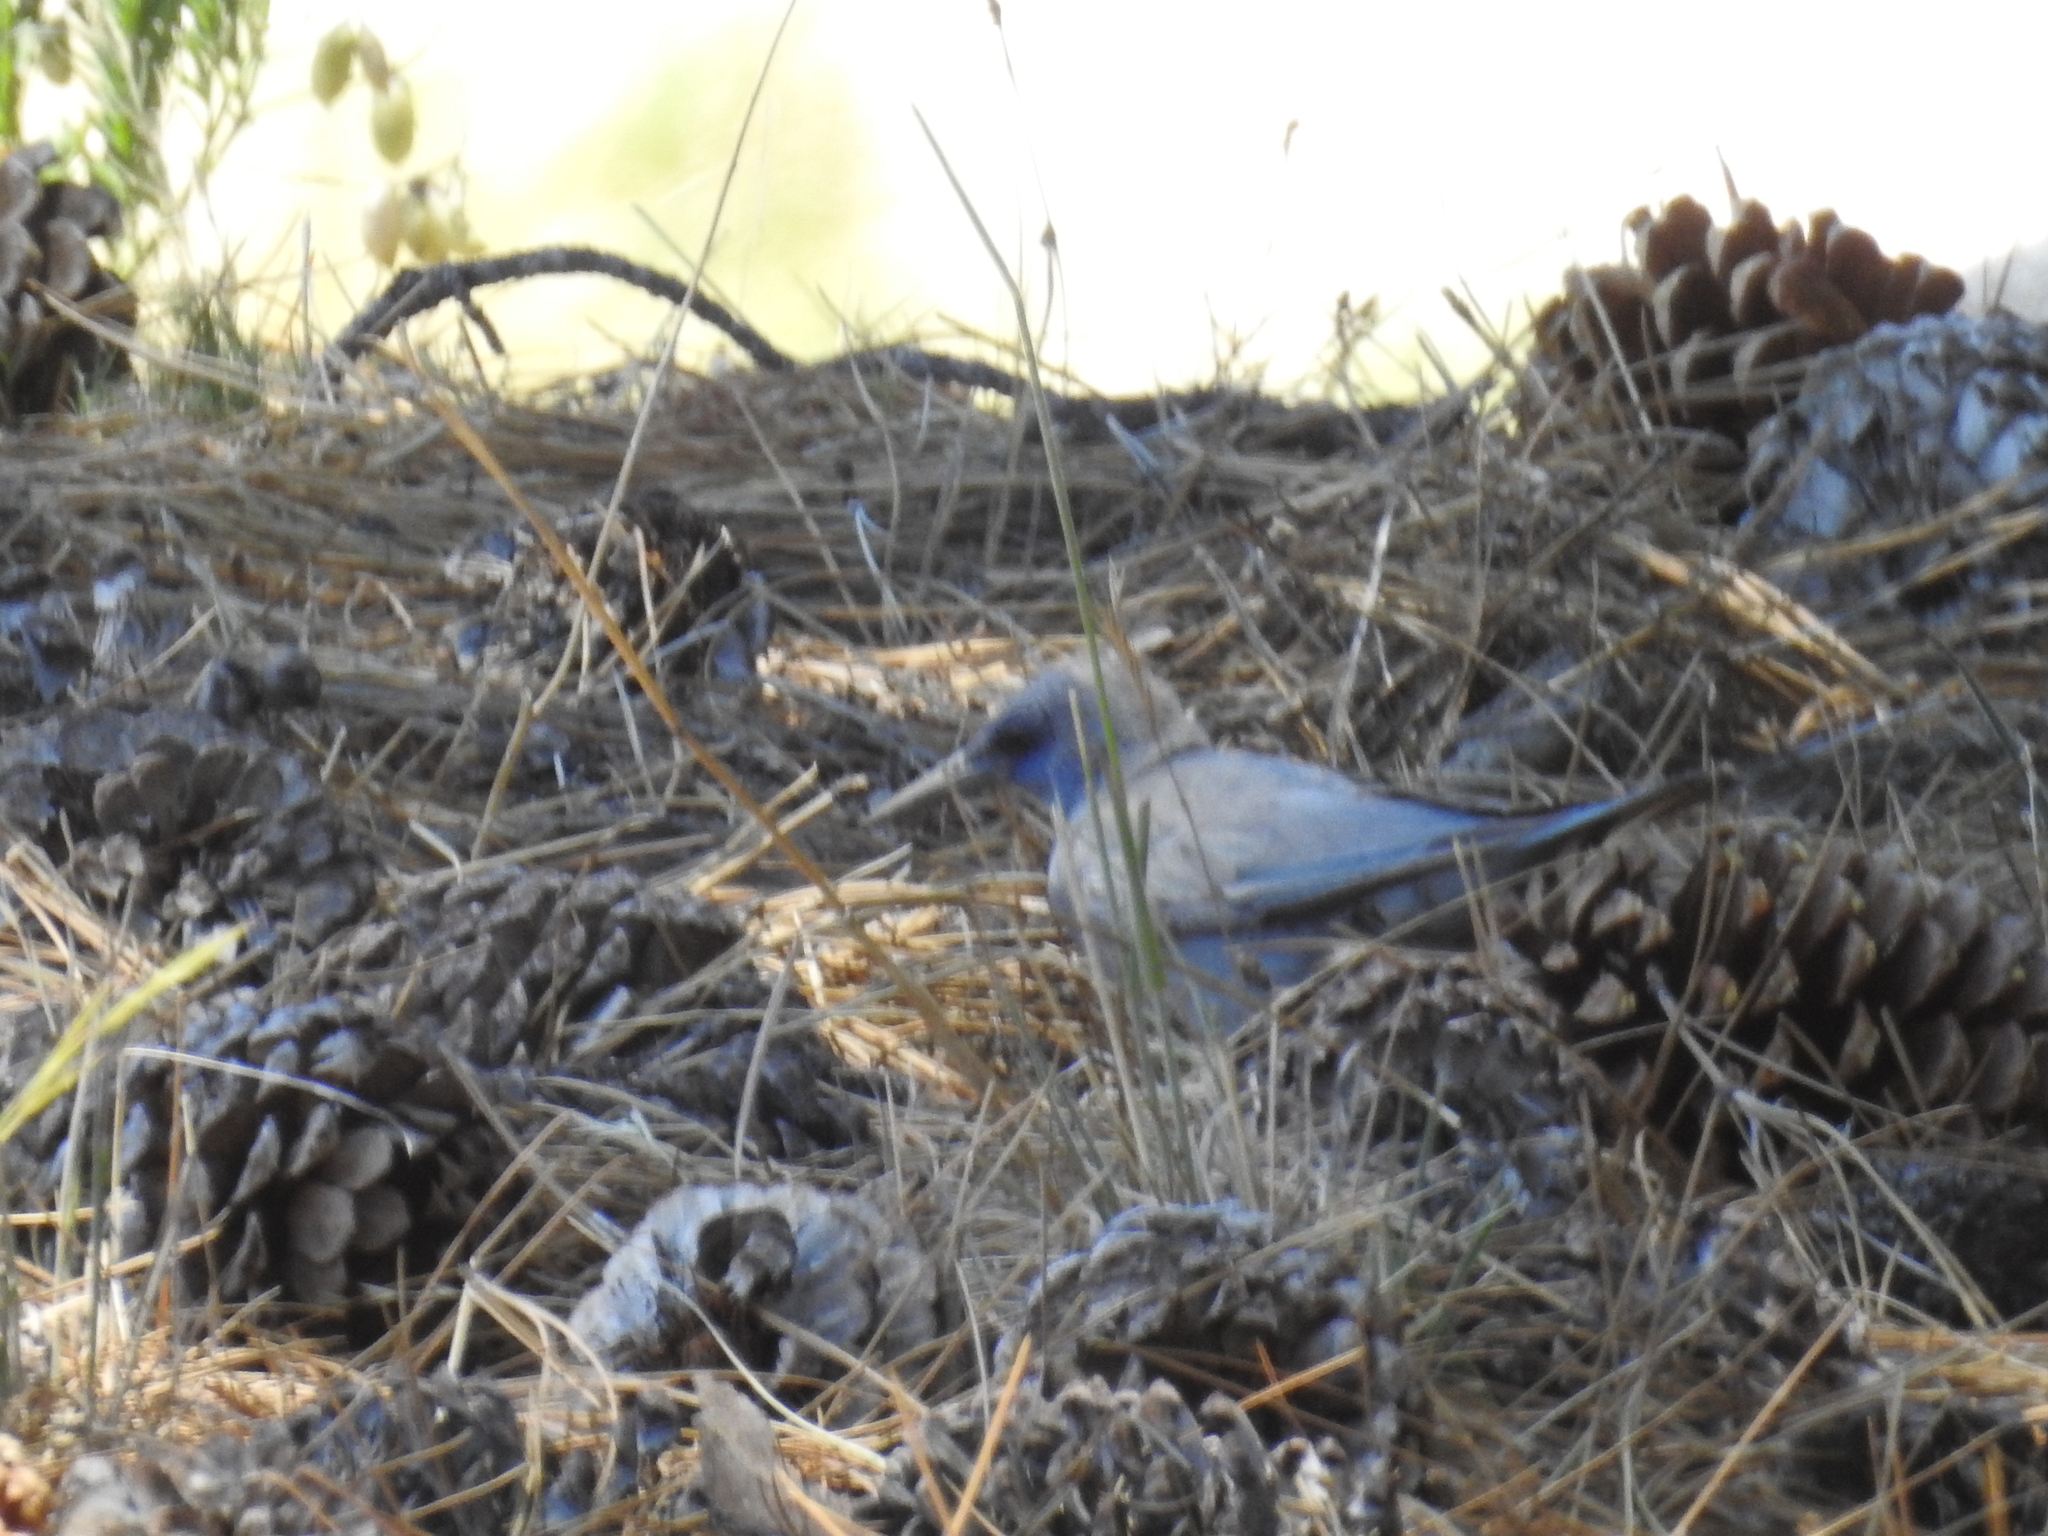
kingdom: Animalia
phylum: Chordata
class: Aves
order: Passeriformes
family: Corvidae
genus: Gymnorhinus
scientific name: Gymnorhinus cyanocephalus
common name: Pinyon jay
